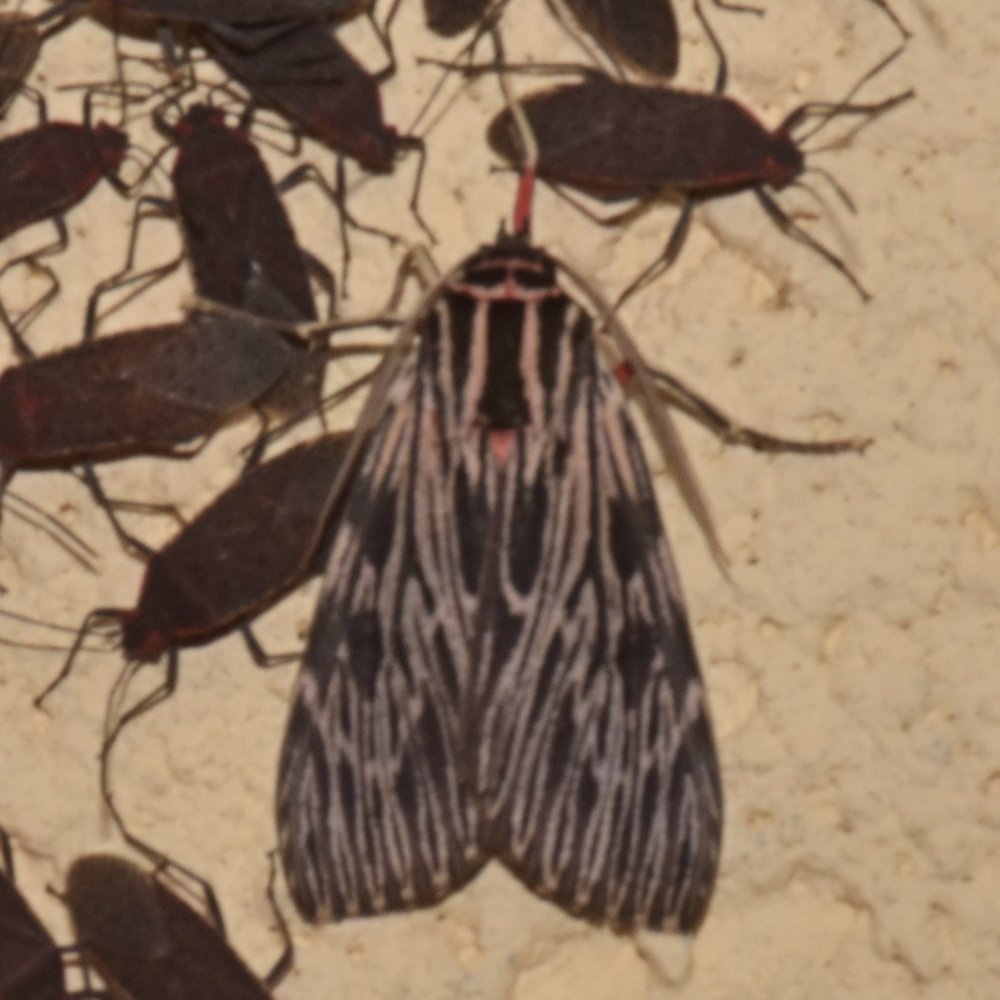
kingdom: Animalia
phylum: Arthropoda
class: Insecta
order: Lepidoptera
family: Erebidae
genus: Calidota
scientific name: Calidota strigosa
